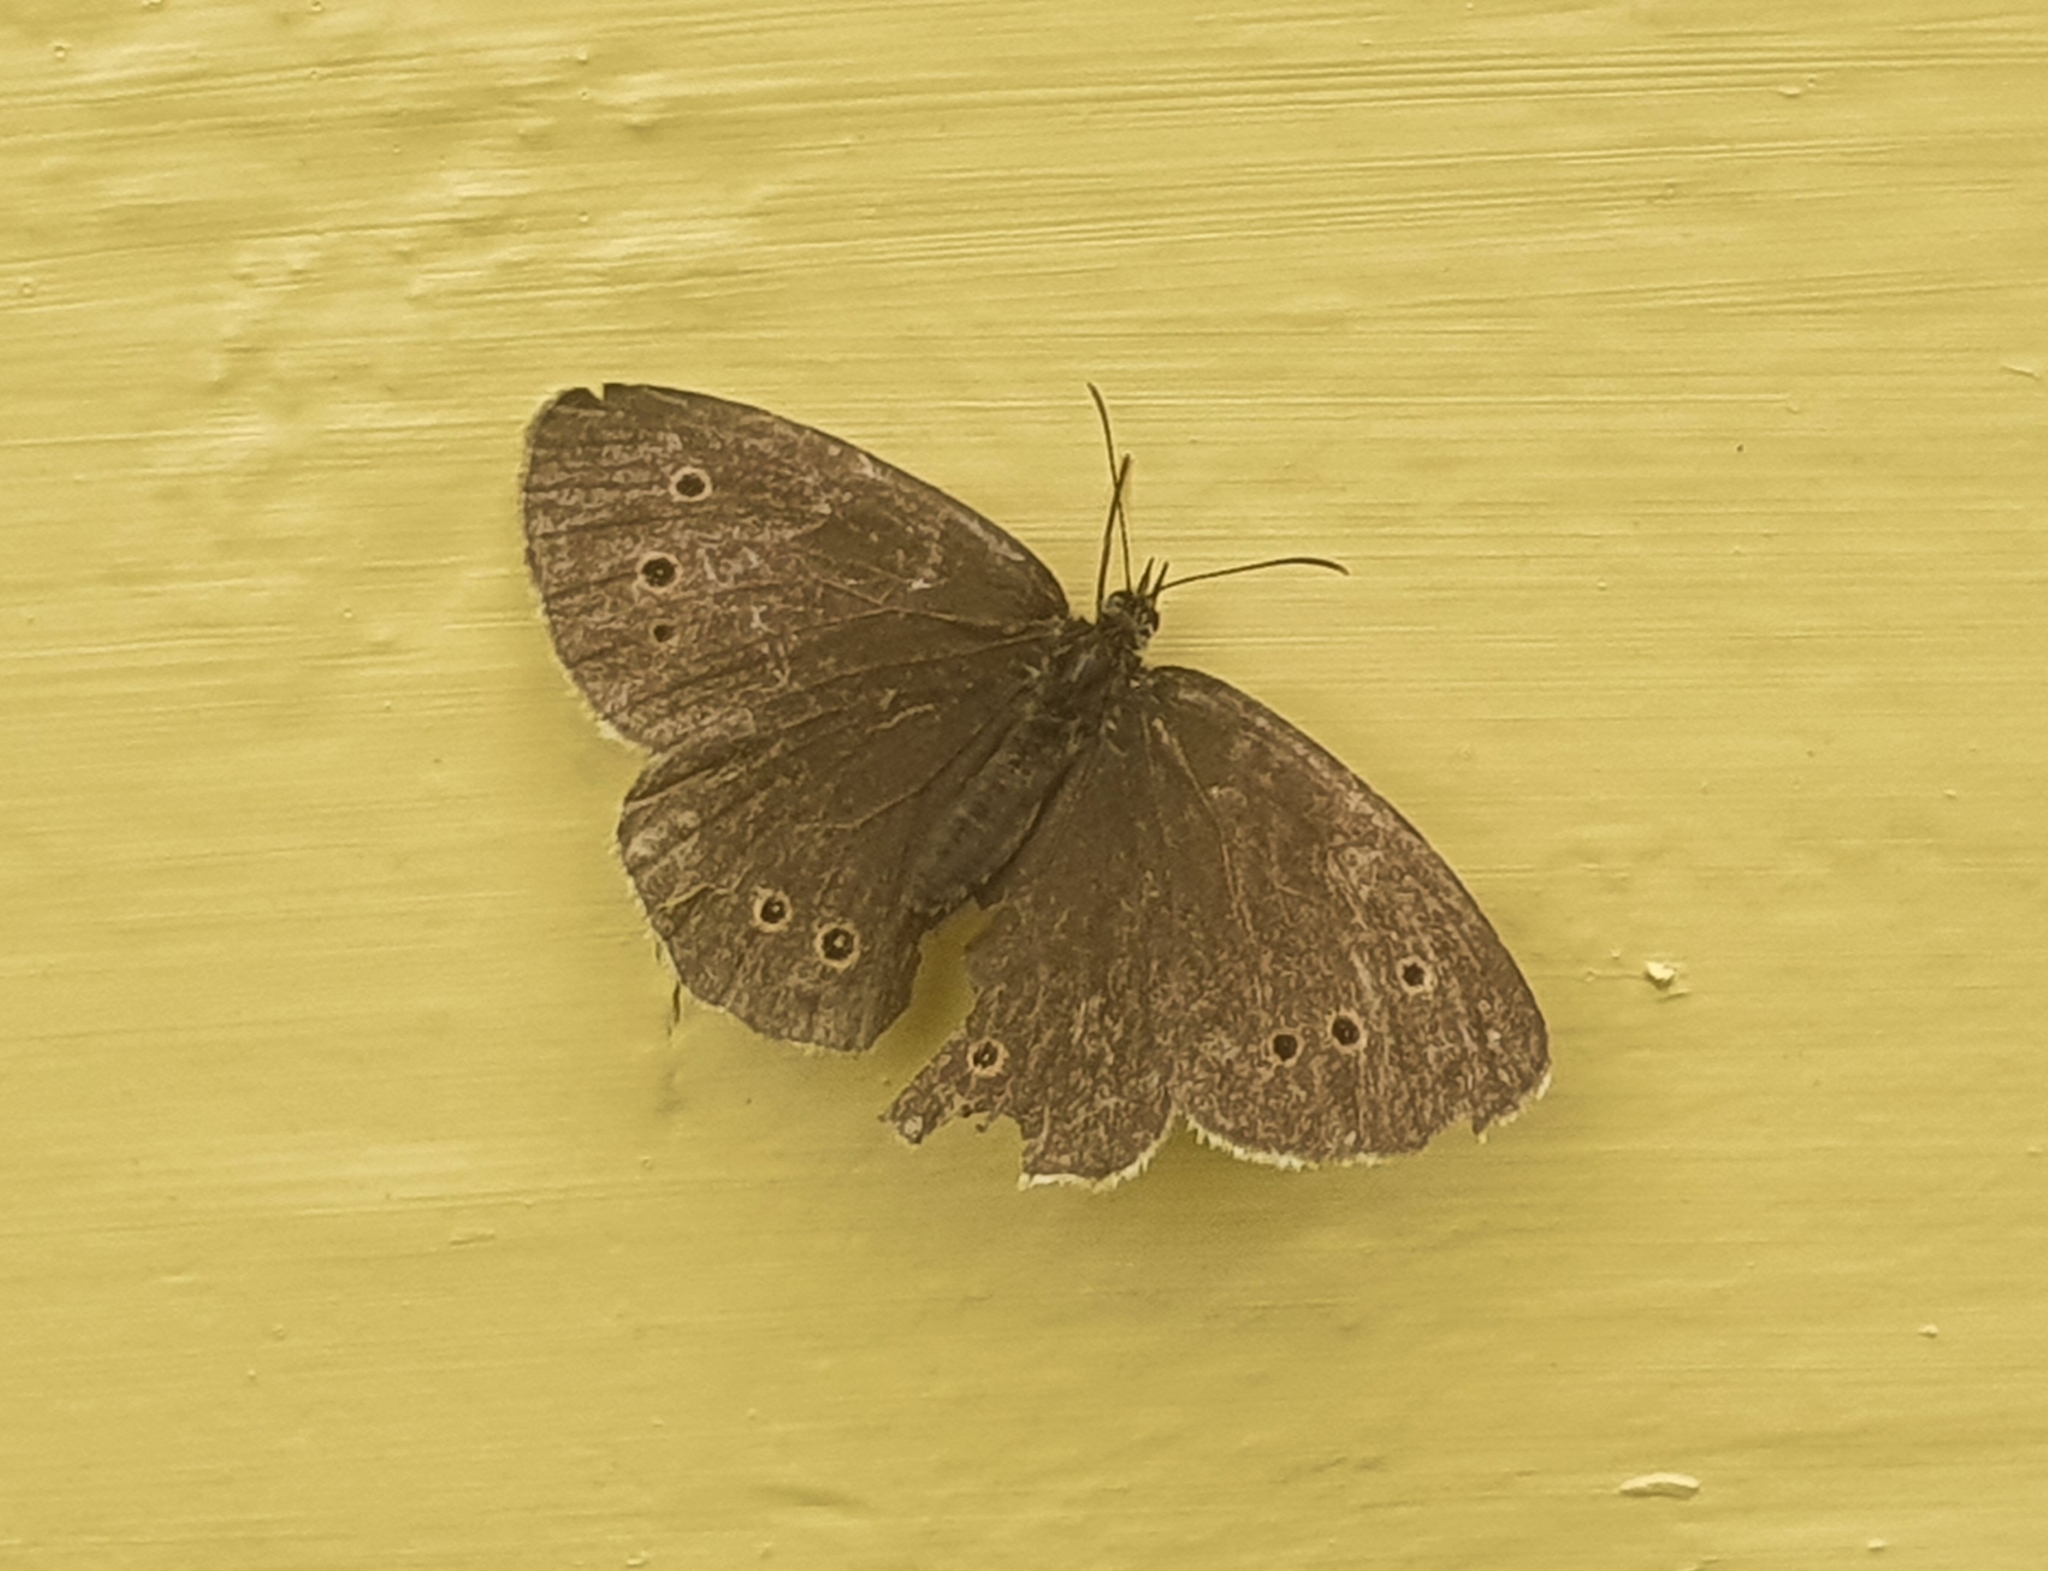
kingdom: Animalia
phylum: Arthropoda
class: Insecta
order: Lepidoptera
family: Nymphalidae
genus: Aphantopus
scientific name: Aphantopus hyperantus
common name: Ringlet
